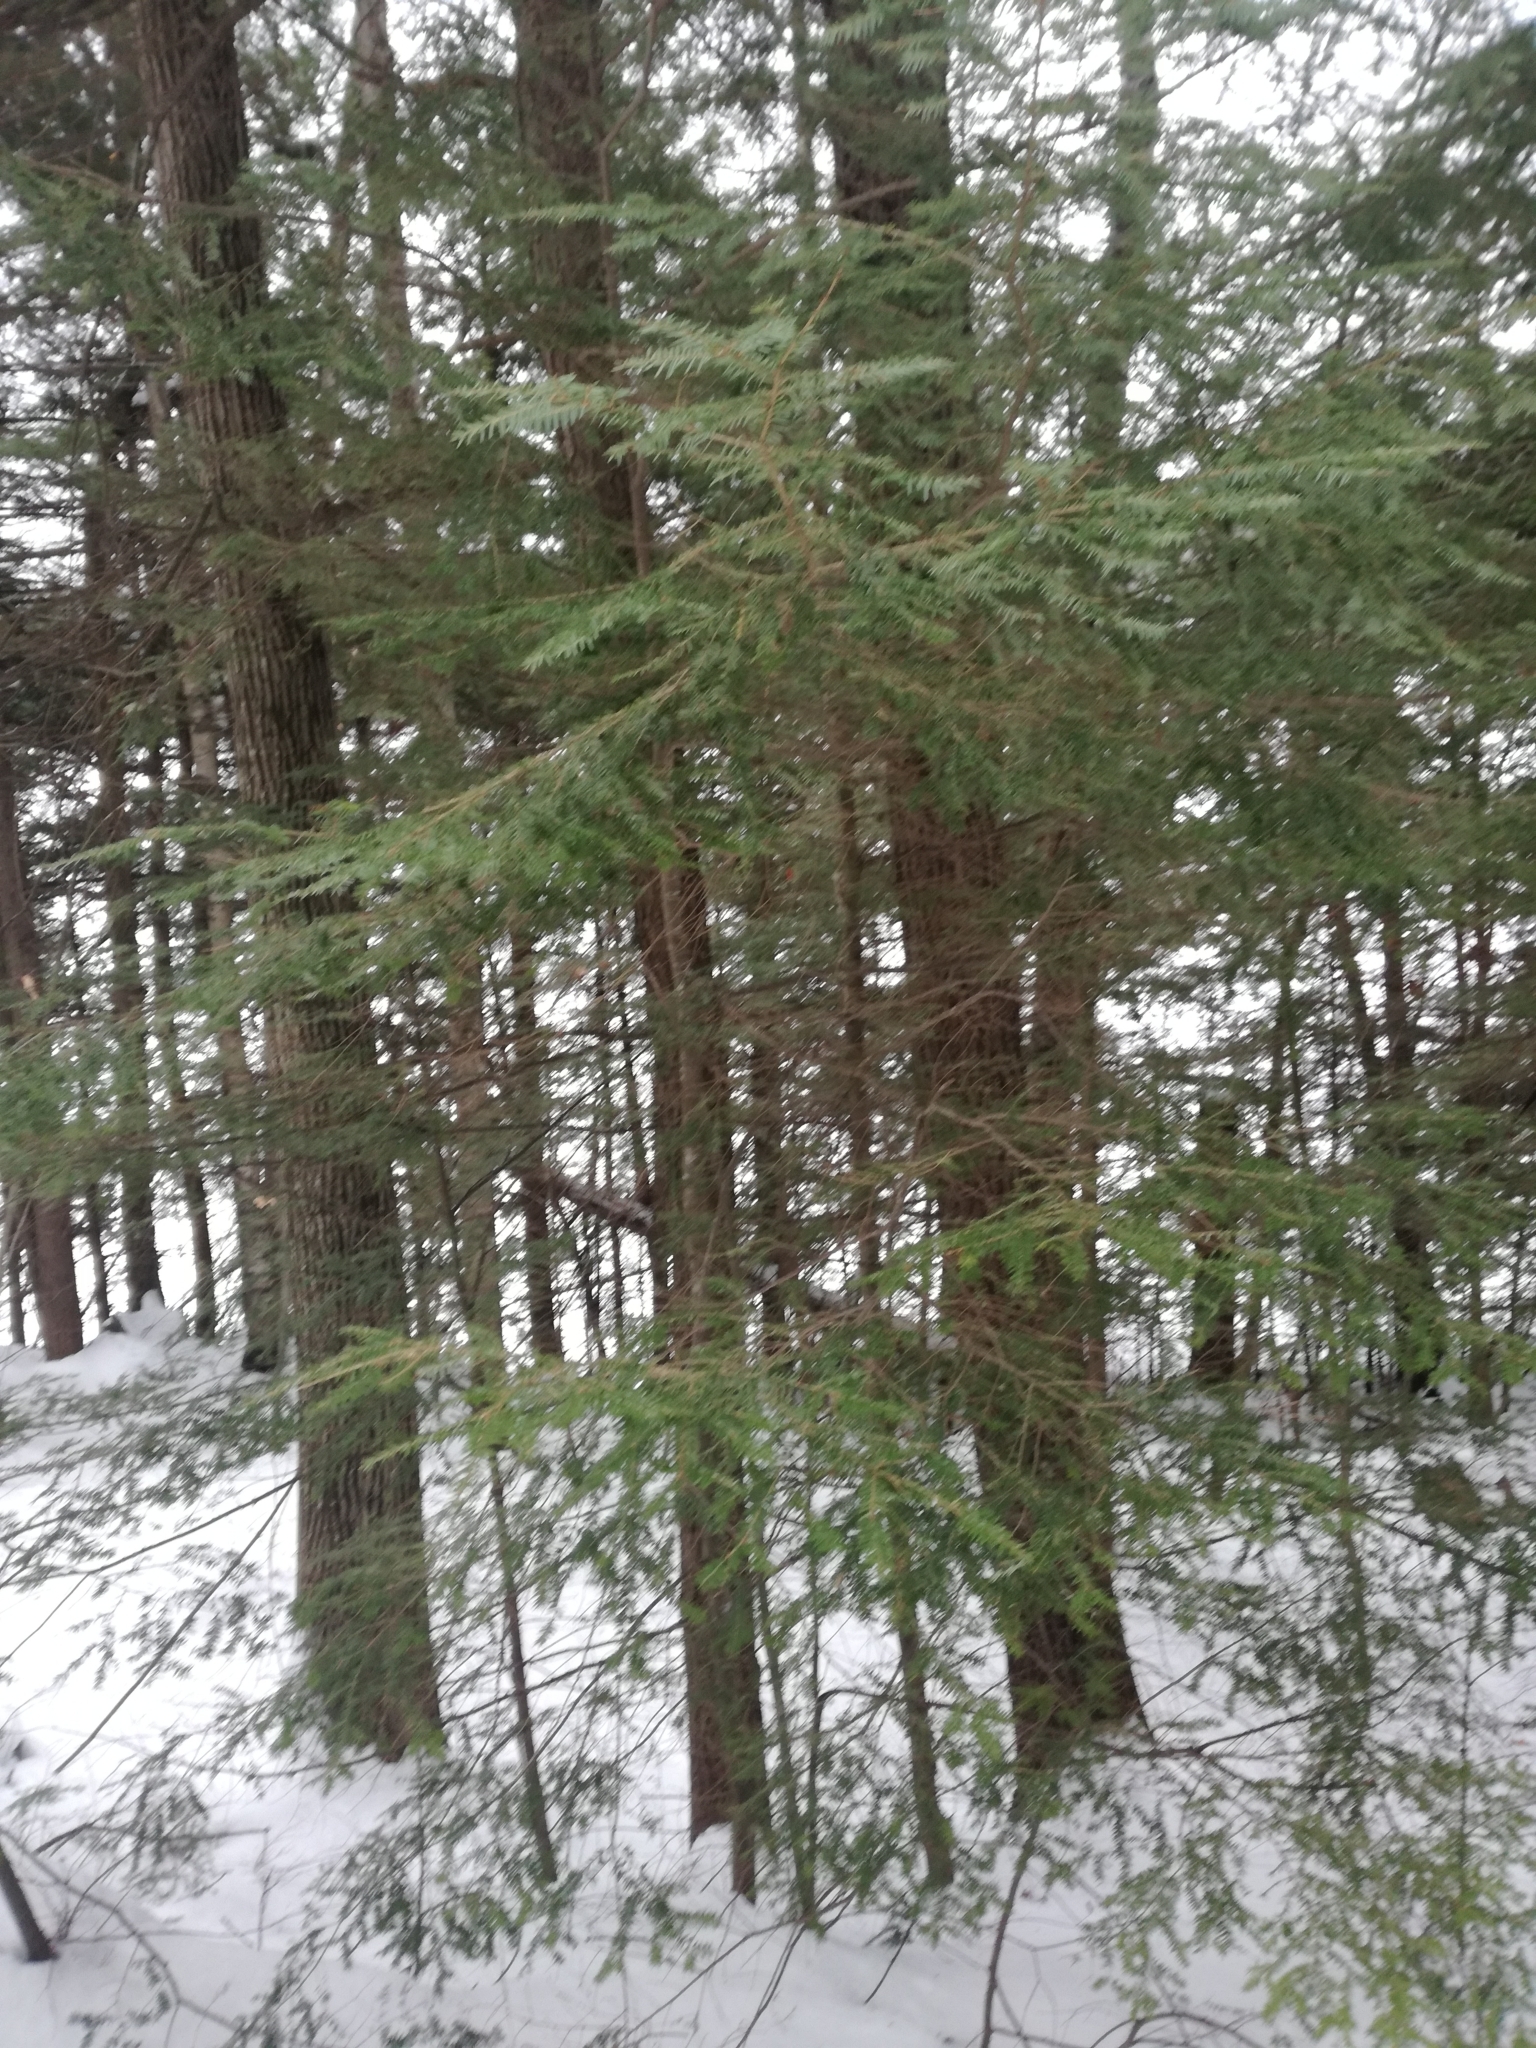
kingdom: Plantae
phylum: Tracheophyta
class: Pinopsida
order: Pinales
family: Pinaceae
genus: Tsuga
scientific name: Tsuga canadensis
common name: Eastern hemlock
